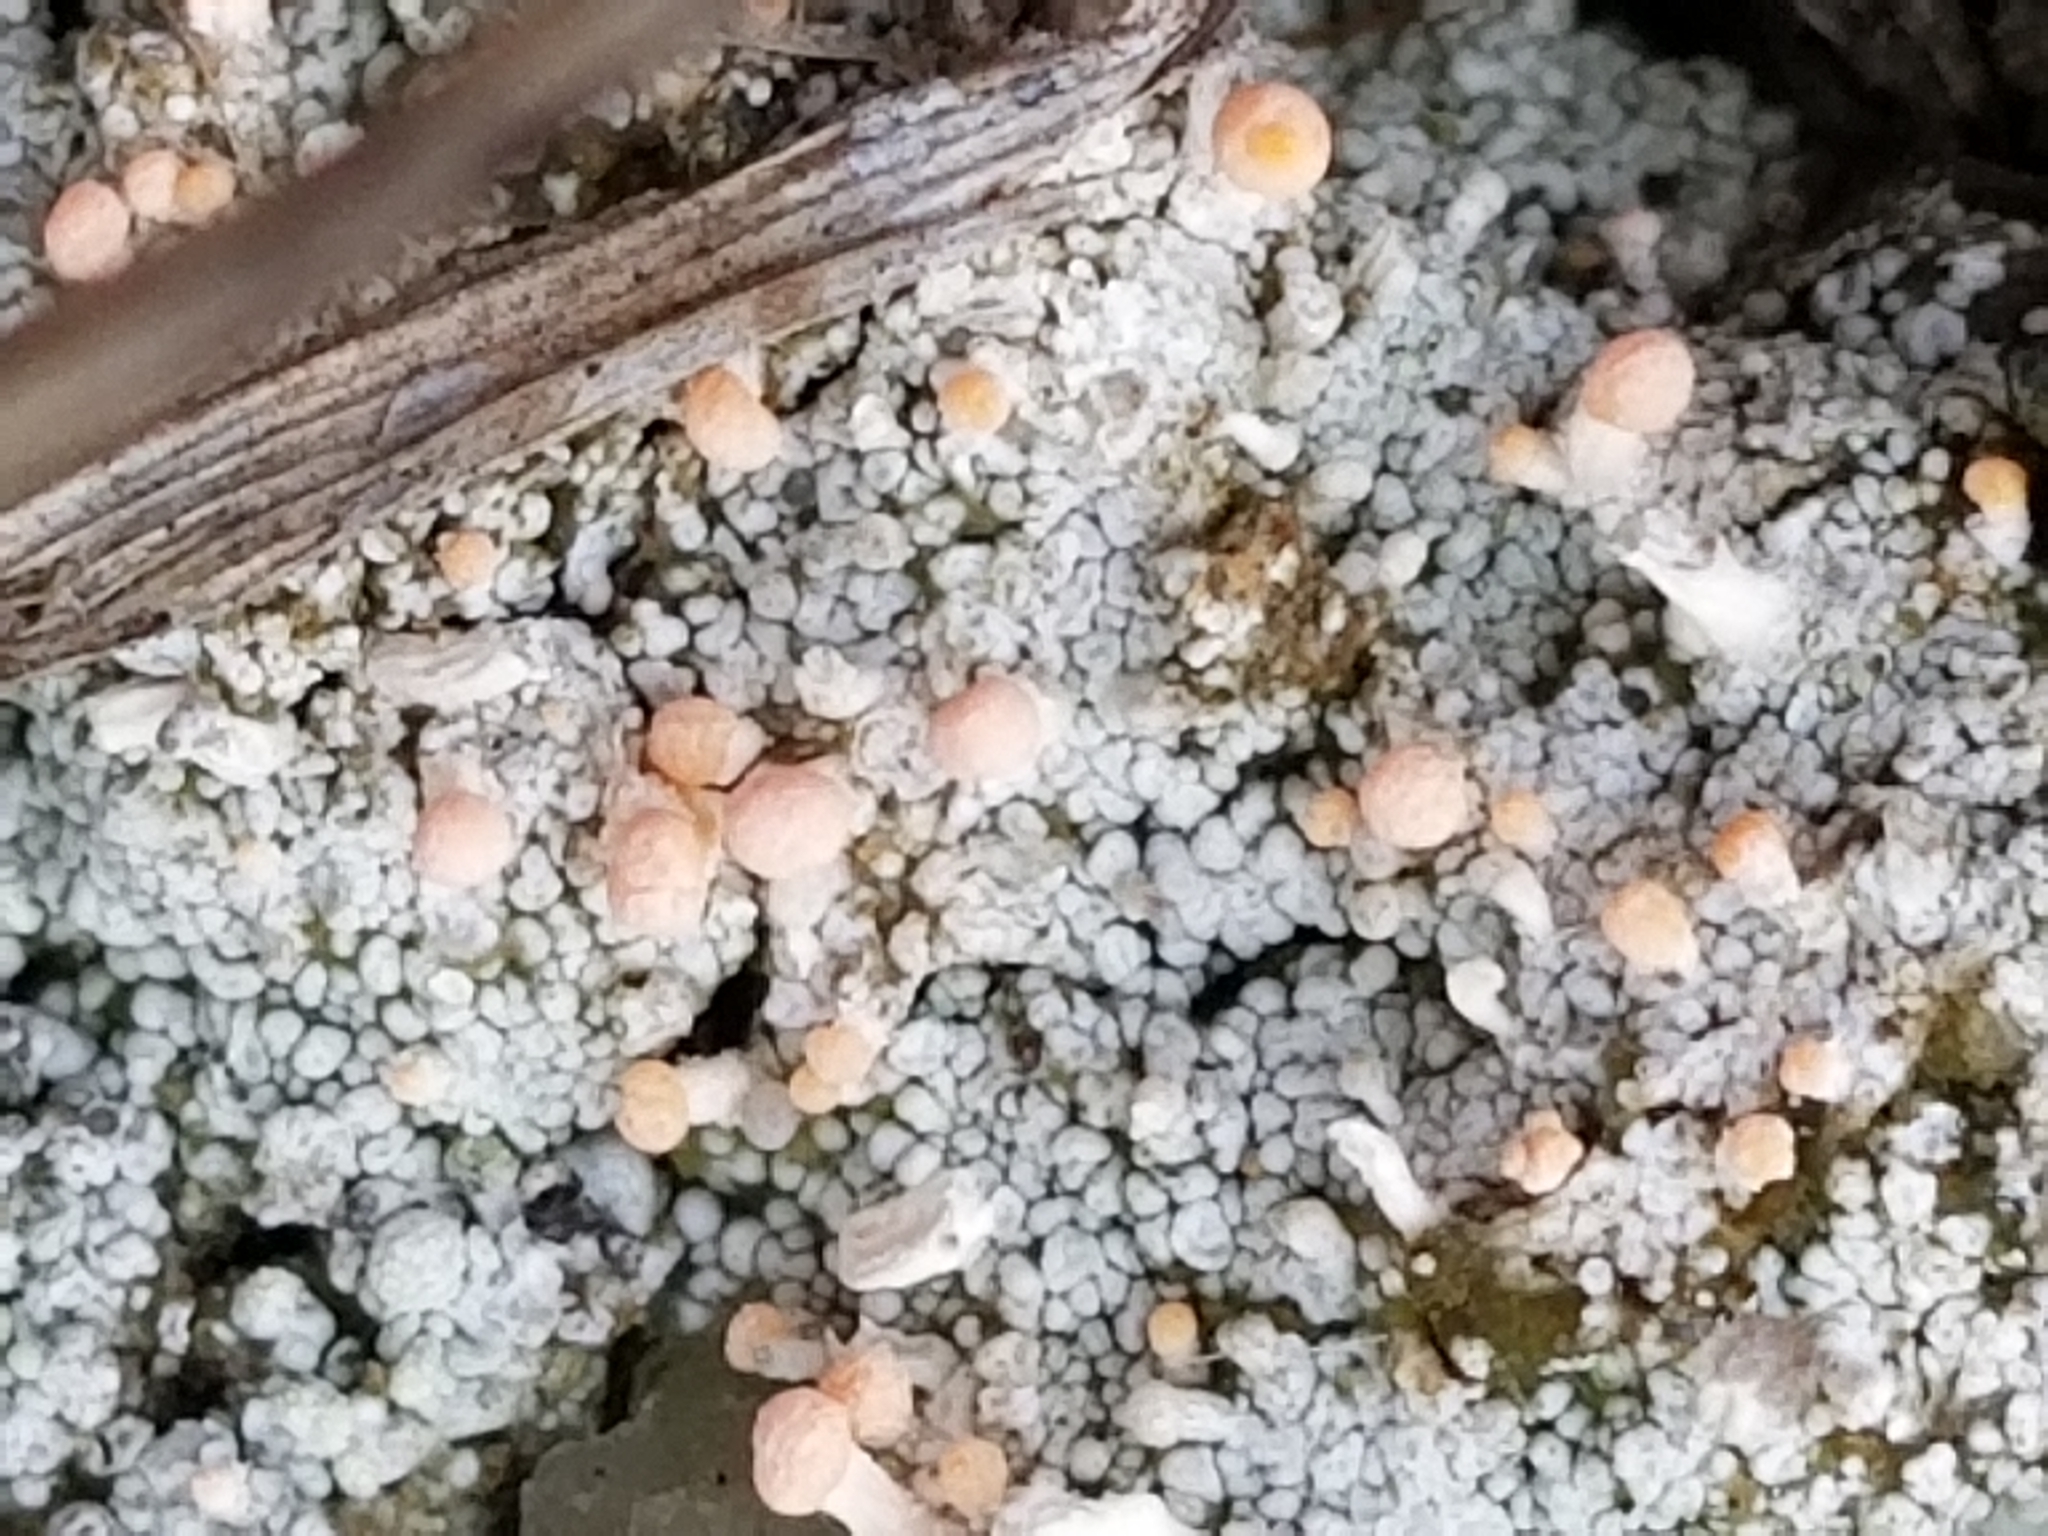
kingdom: Fungi
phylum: Ascomycota
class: Lecanoromycetes
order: Pertusariales
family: Icmadophilaceae
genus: Dibaeis
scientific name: Dibaeis baeomyces
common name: Pink earth lichen
